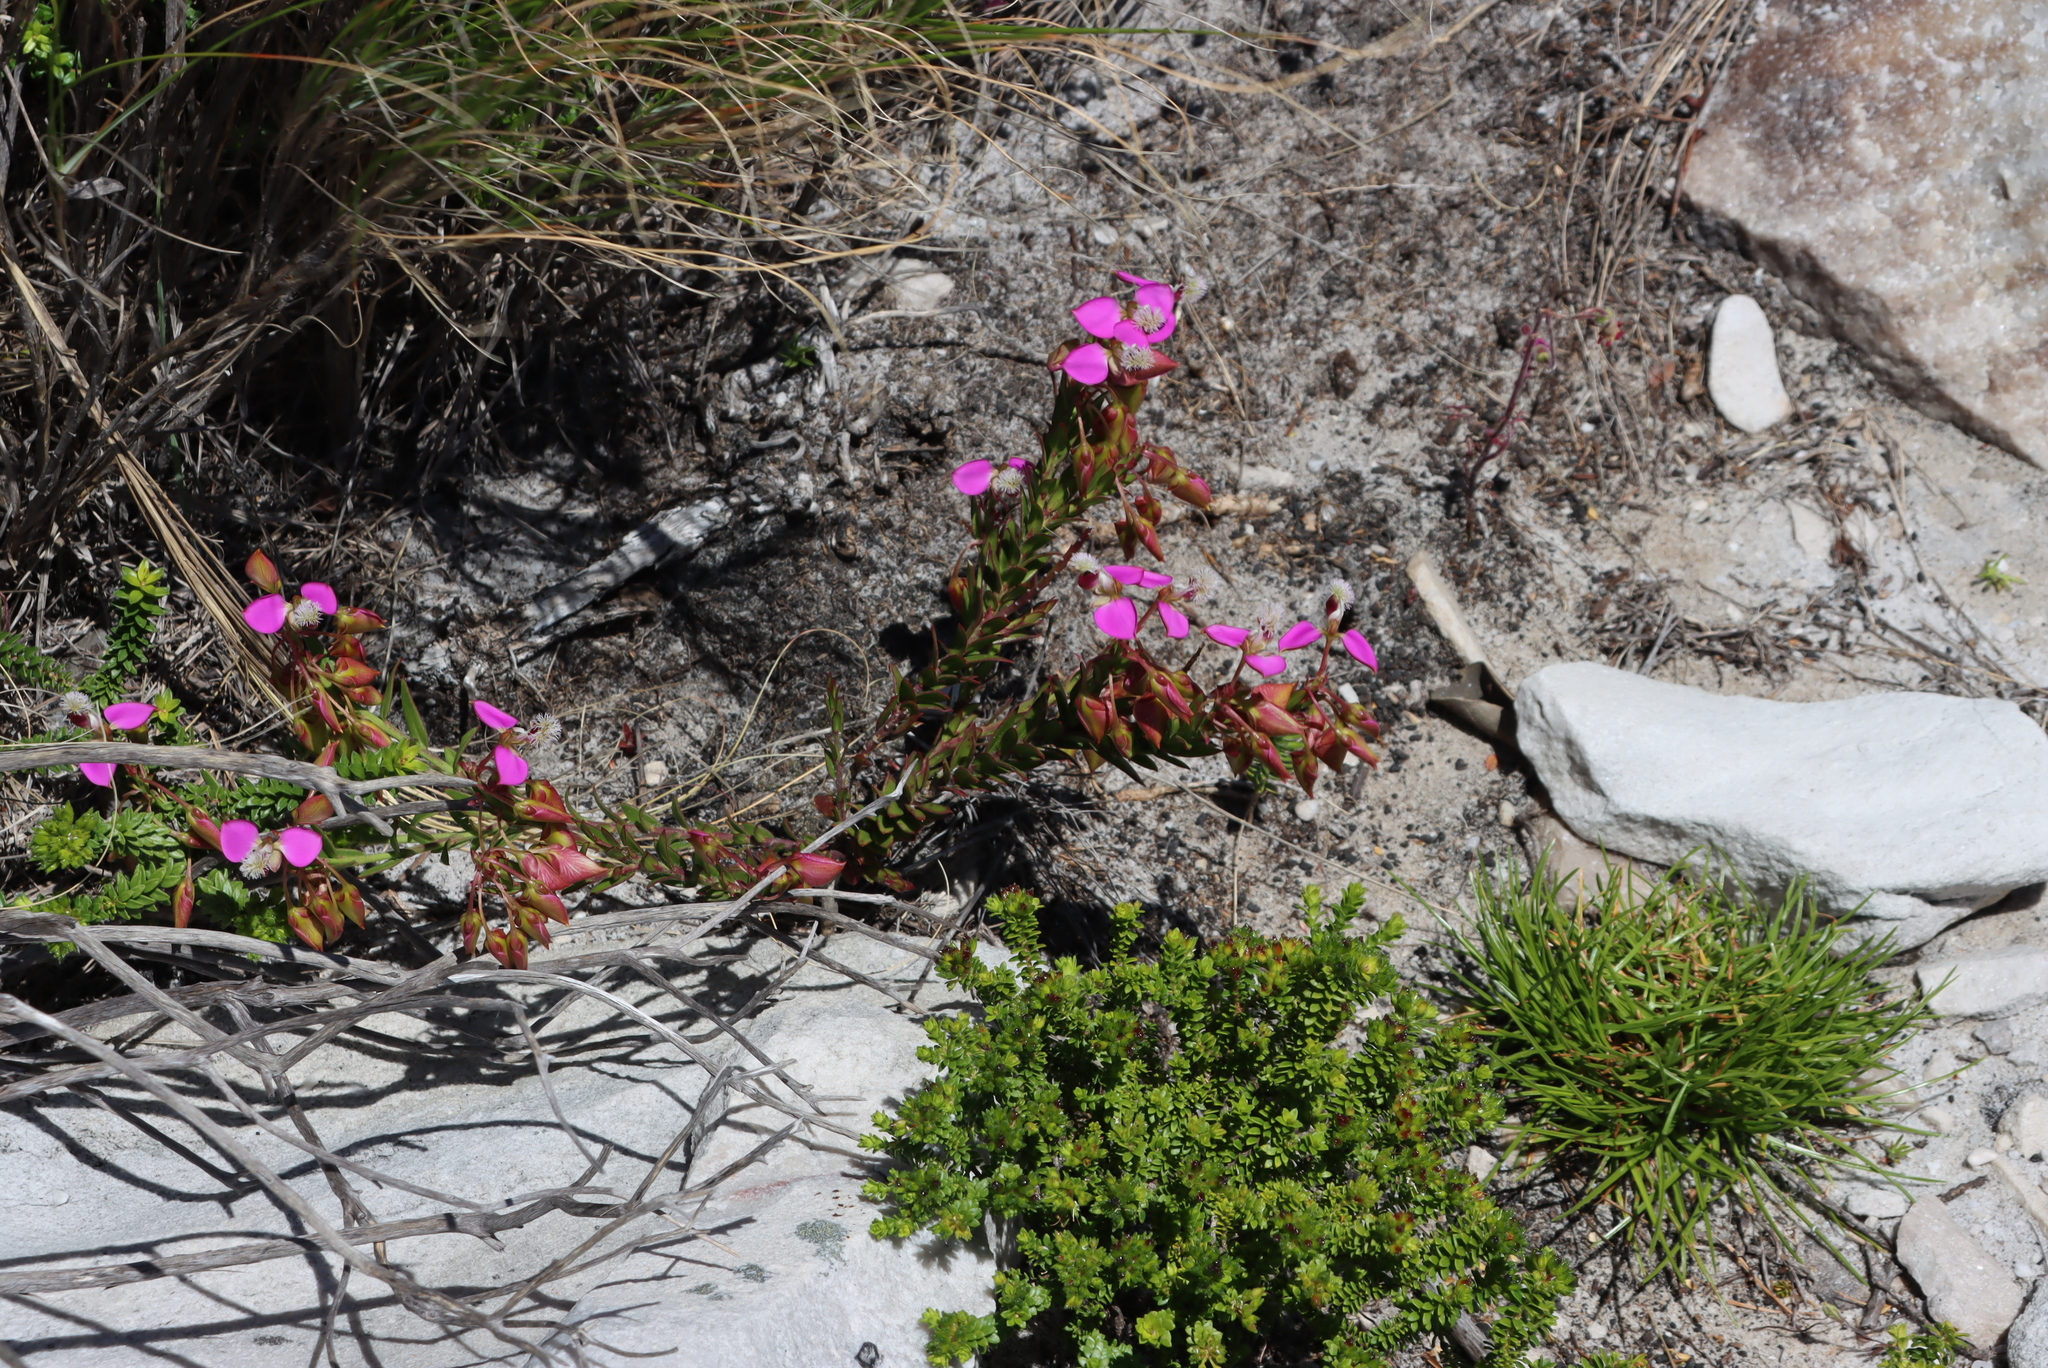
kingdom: Plantae
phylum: Tracheophyta
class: Magnoliopsida
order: Fabales
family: Polygalaceae
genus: Polygala
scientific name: Polygala bracteolata
